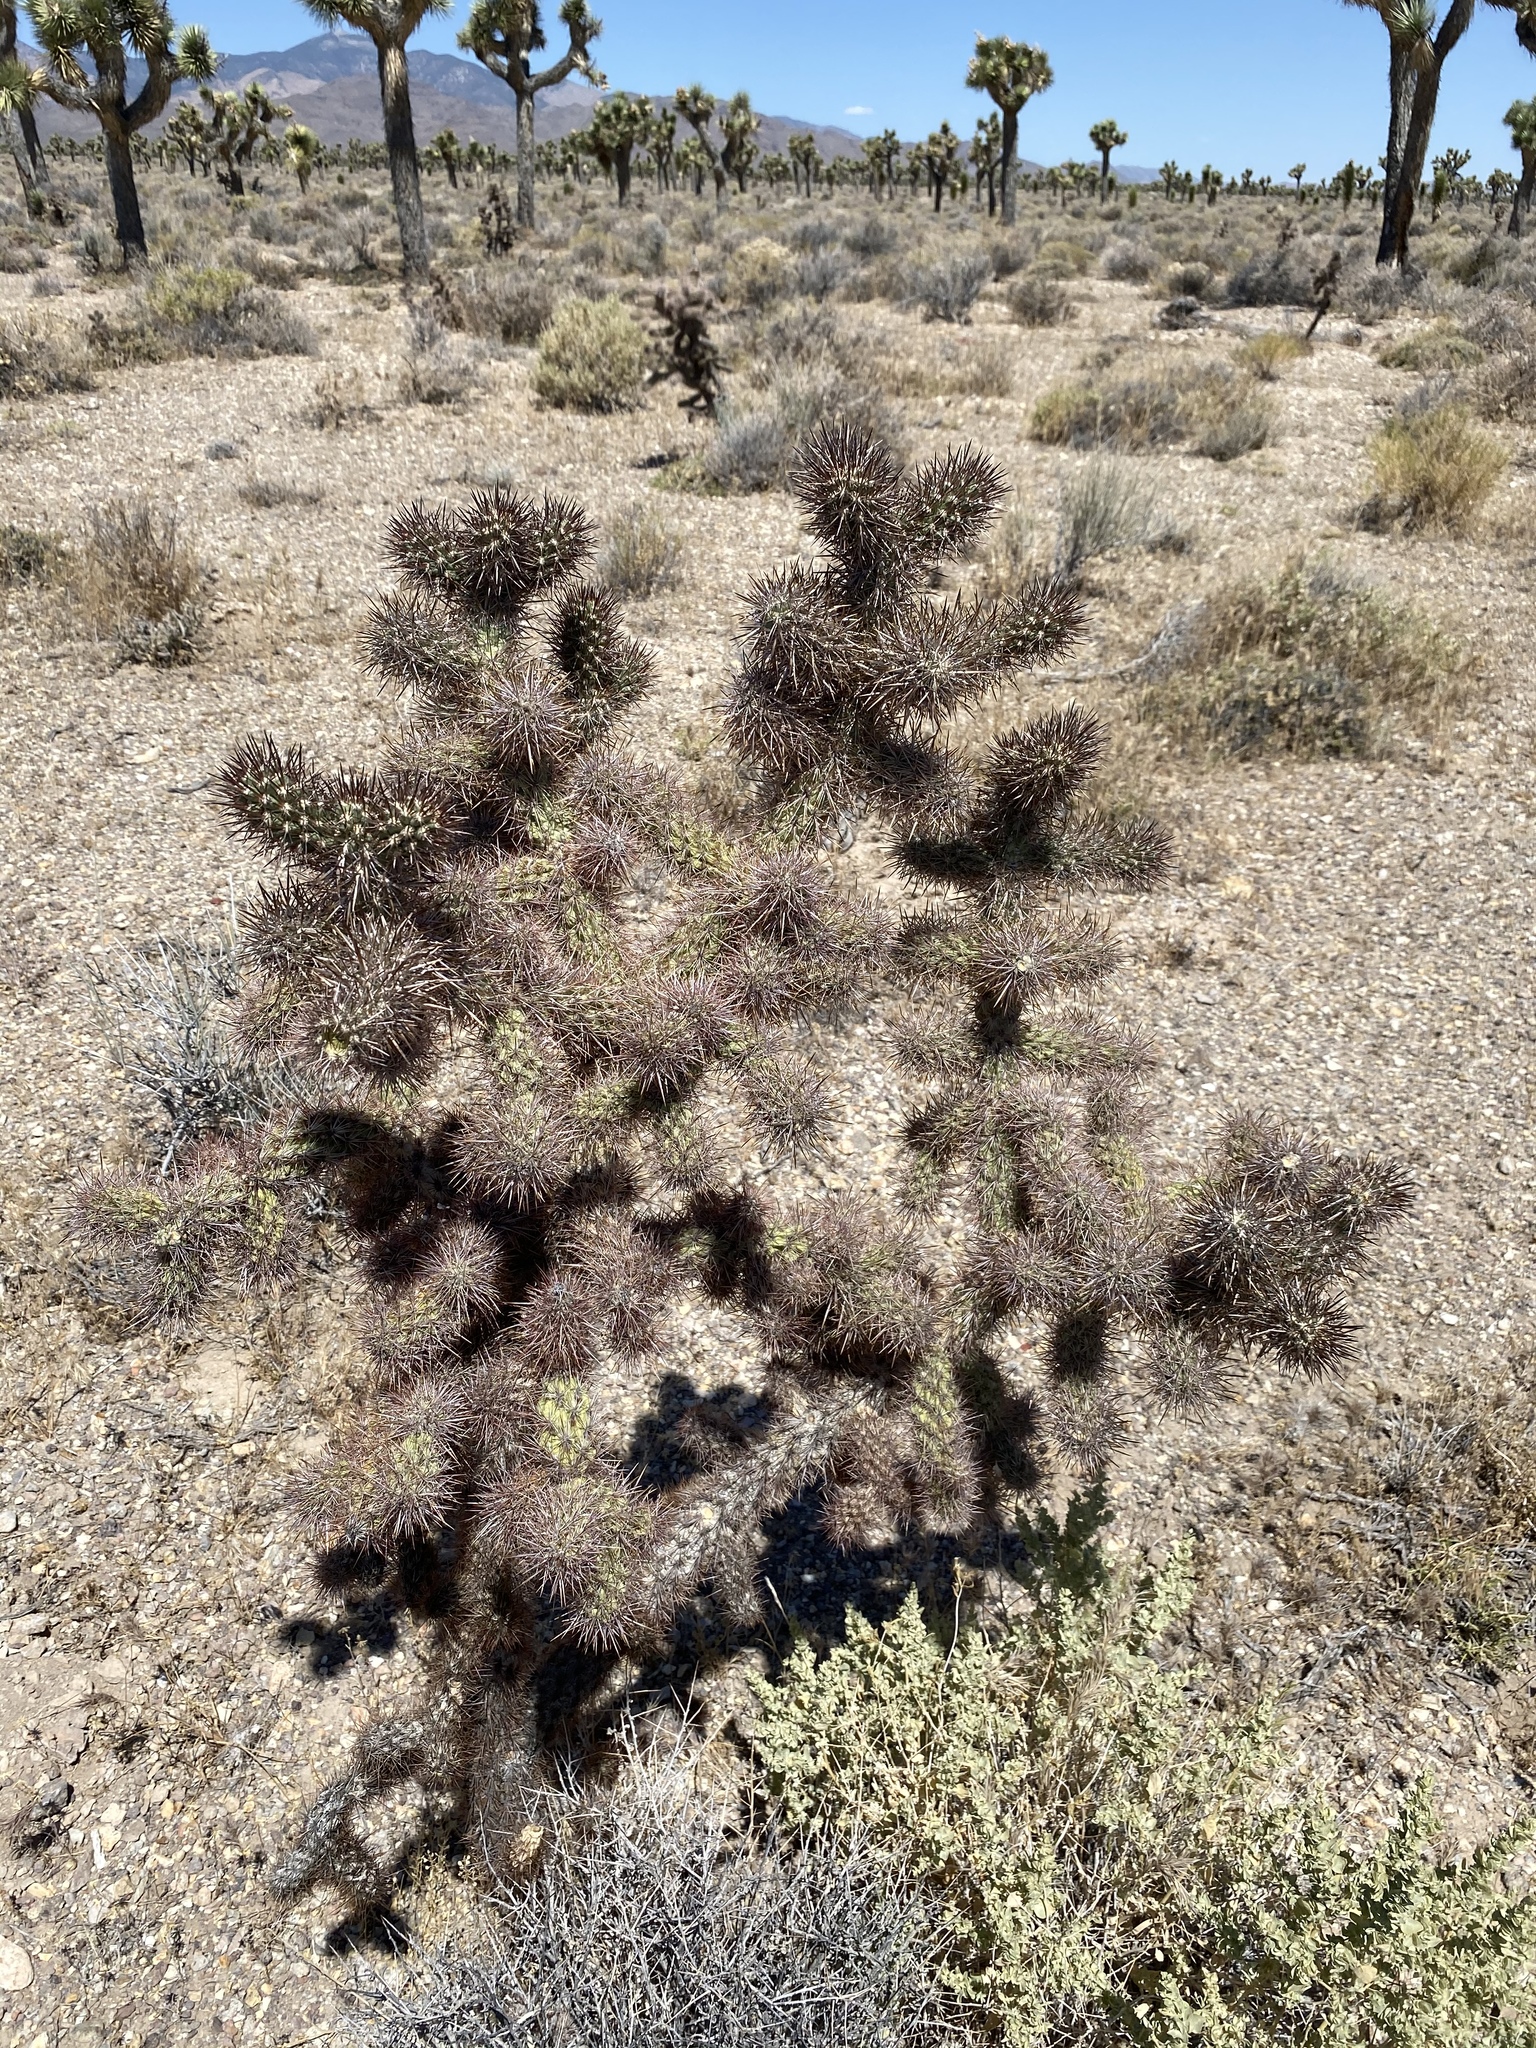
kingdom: Plantae
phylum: Tracheophyta
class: Magnoliopsida
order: Caryophyllales
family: Cactaceae
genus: Cylindropuntia
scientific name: Cylindropuntia echinocarpa
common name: Ground cholla
